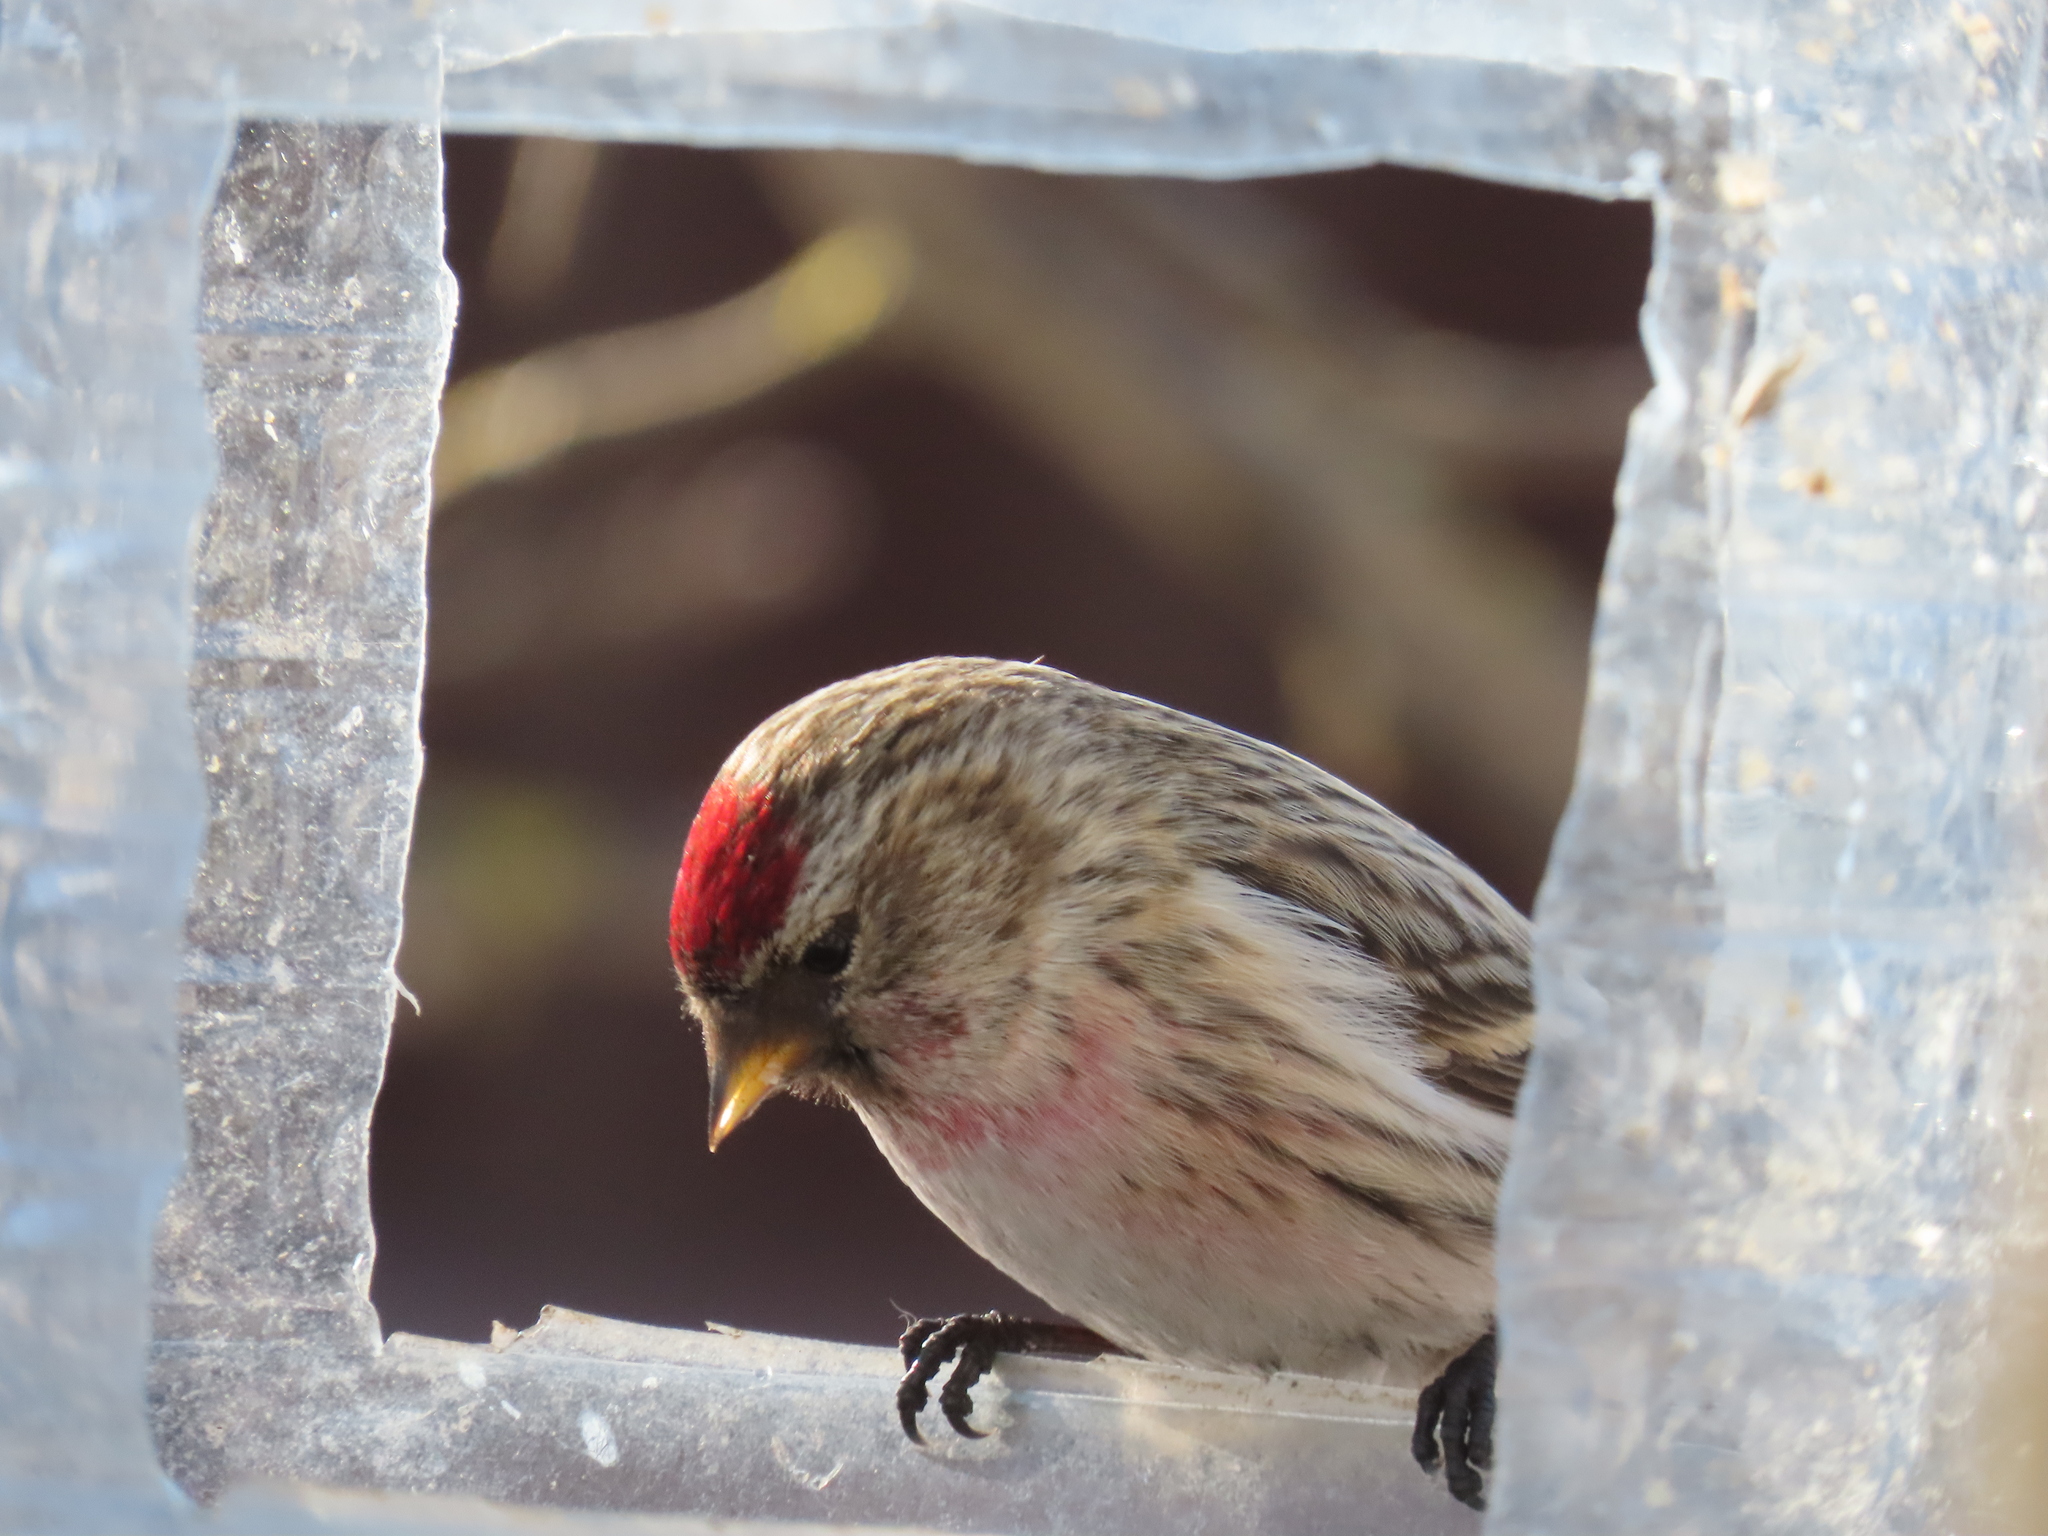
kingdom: Animalia
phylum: Chordata
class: Aves
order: Passeriformes
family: Fringillidae
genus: Acanthis
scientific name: Acanthis flammea
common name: Common redpoll
